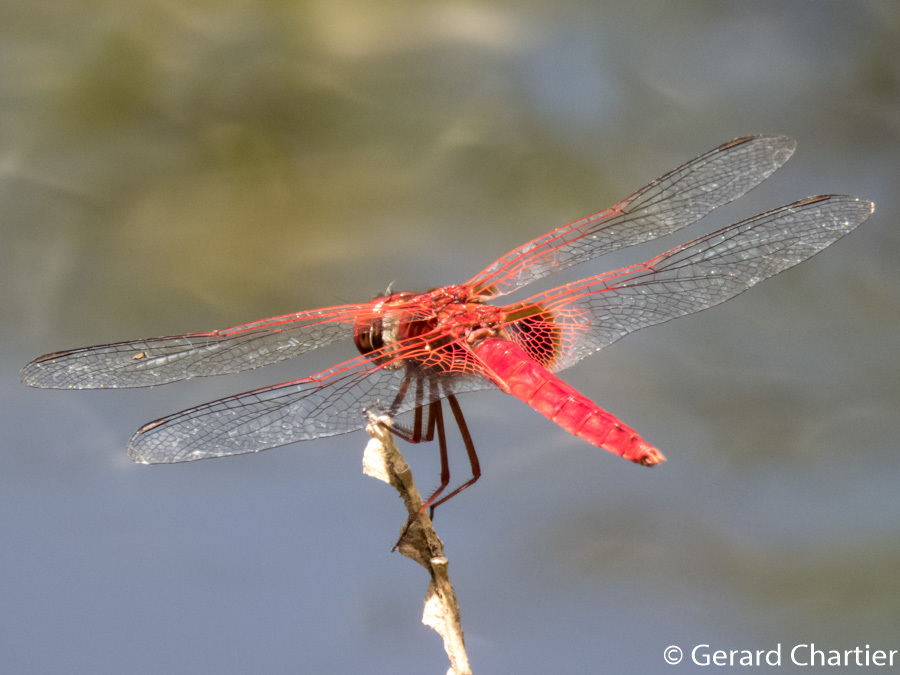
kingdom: Animalia
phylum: Arthropoda
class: Insecta
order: Odonata
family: Libellulidae
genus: Urothemis
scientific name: Urothemis signata
